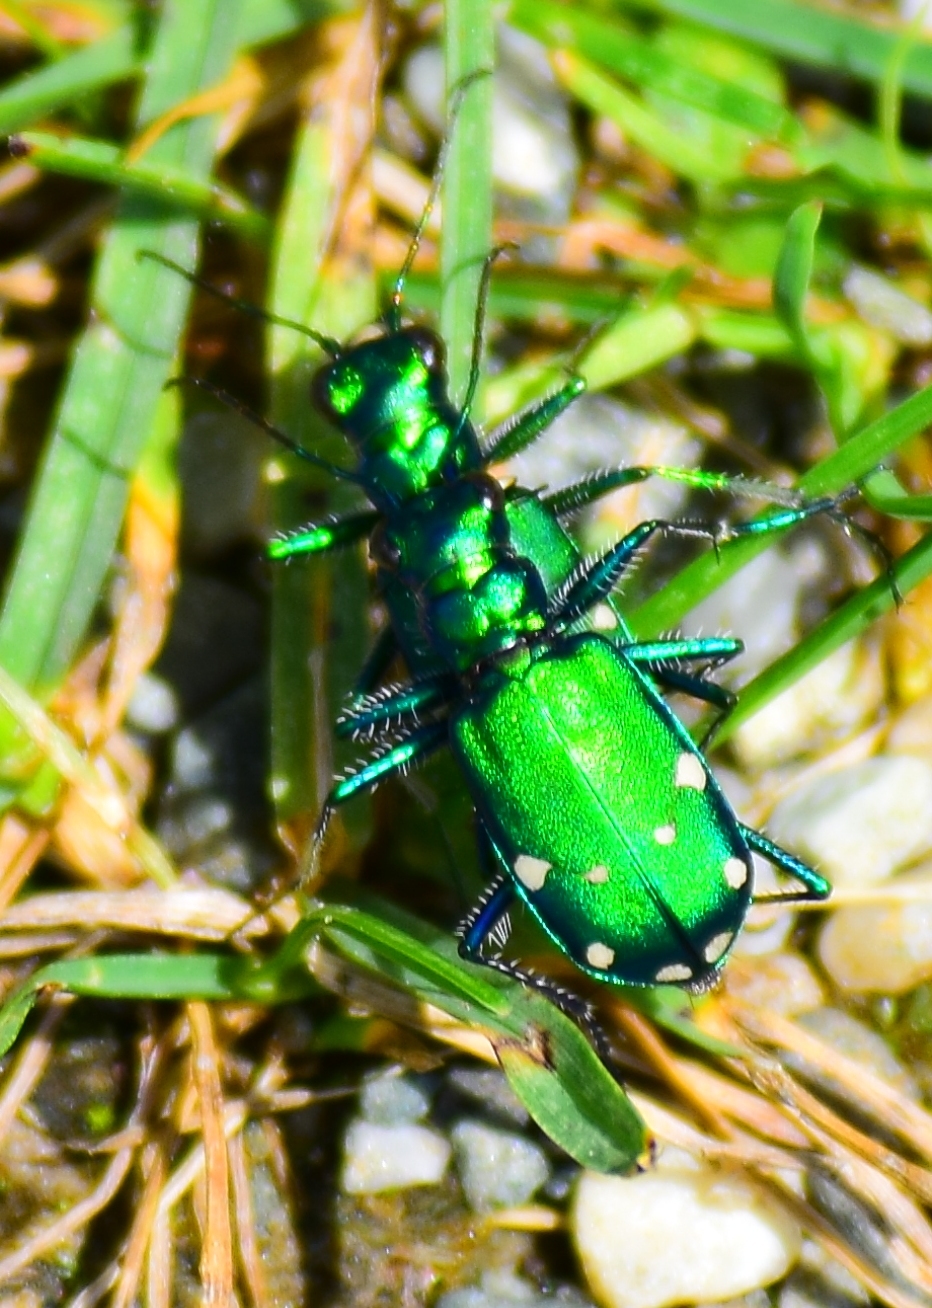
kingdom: Animalia
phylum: Arthropoda
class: Insecta
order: Coleoptera
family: Carabidae
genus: Cicindela
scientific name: Cicindela sexguttata
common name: Six-spotted tiger beetle
